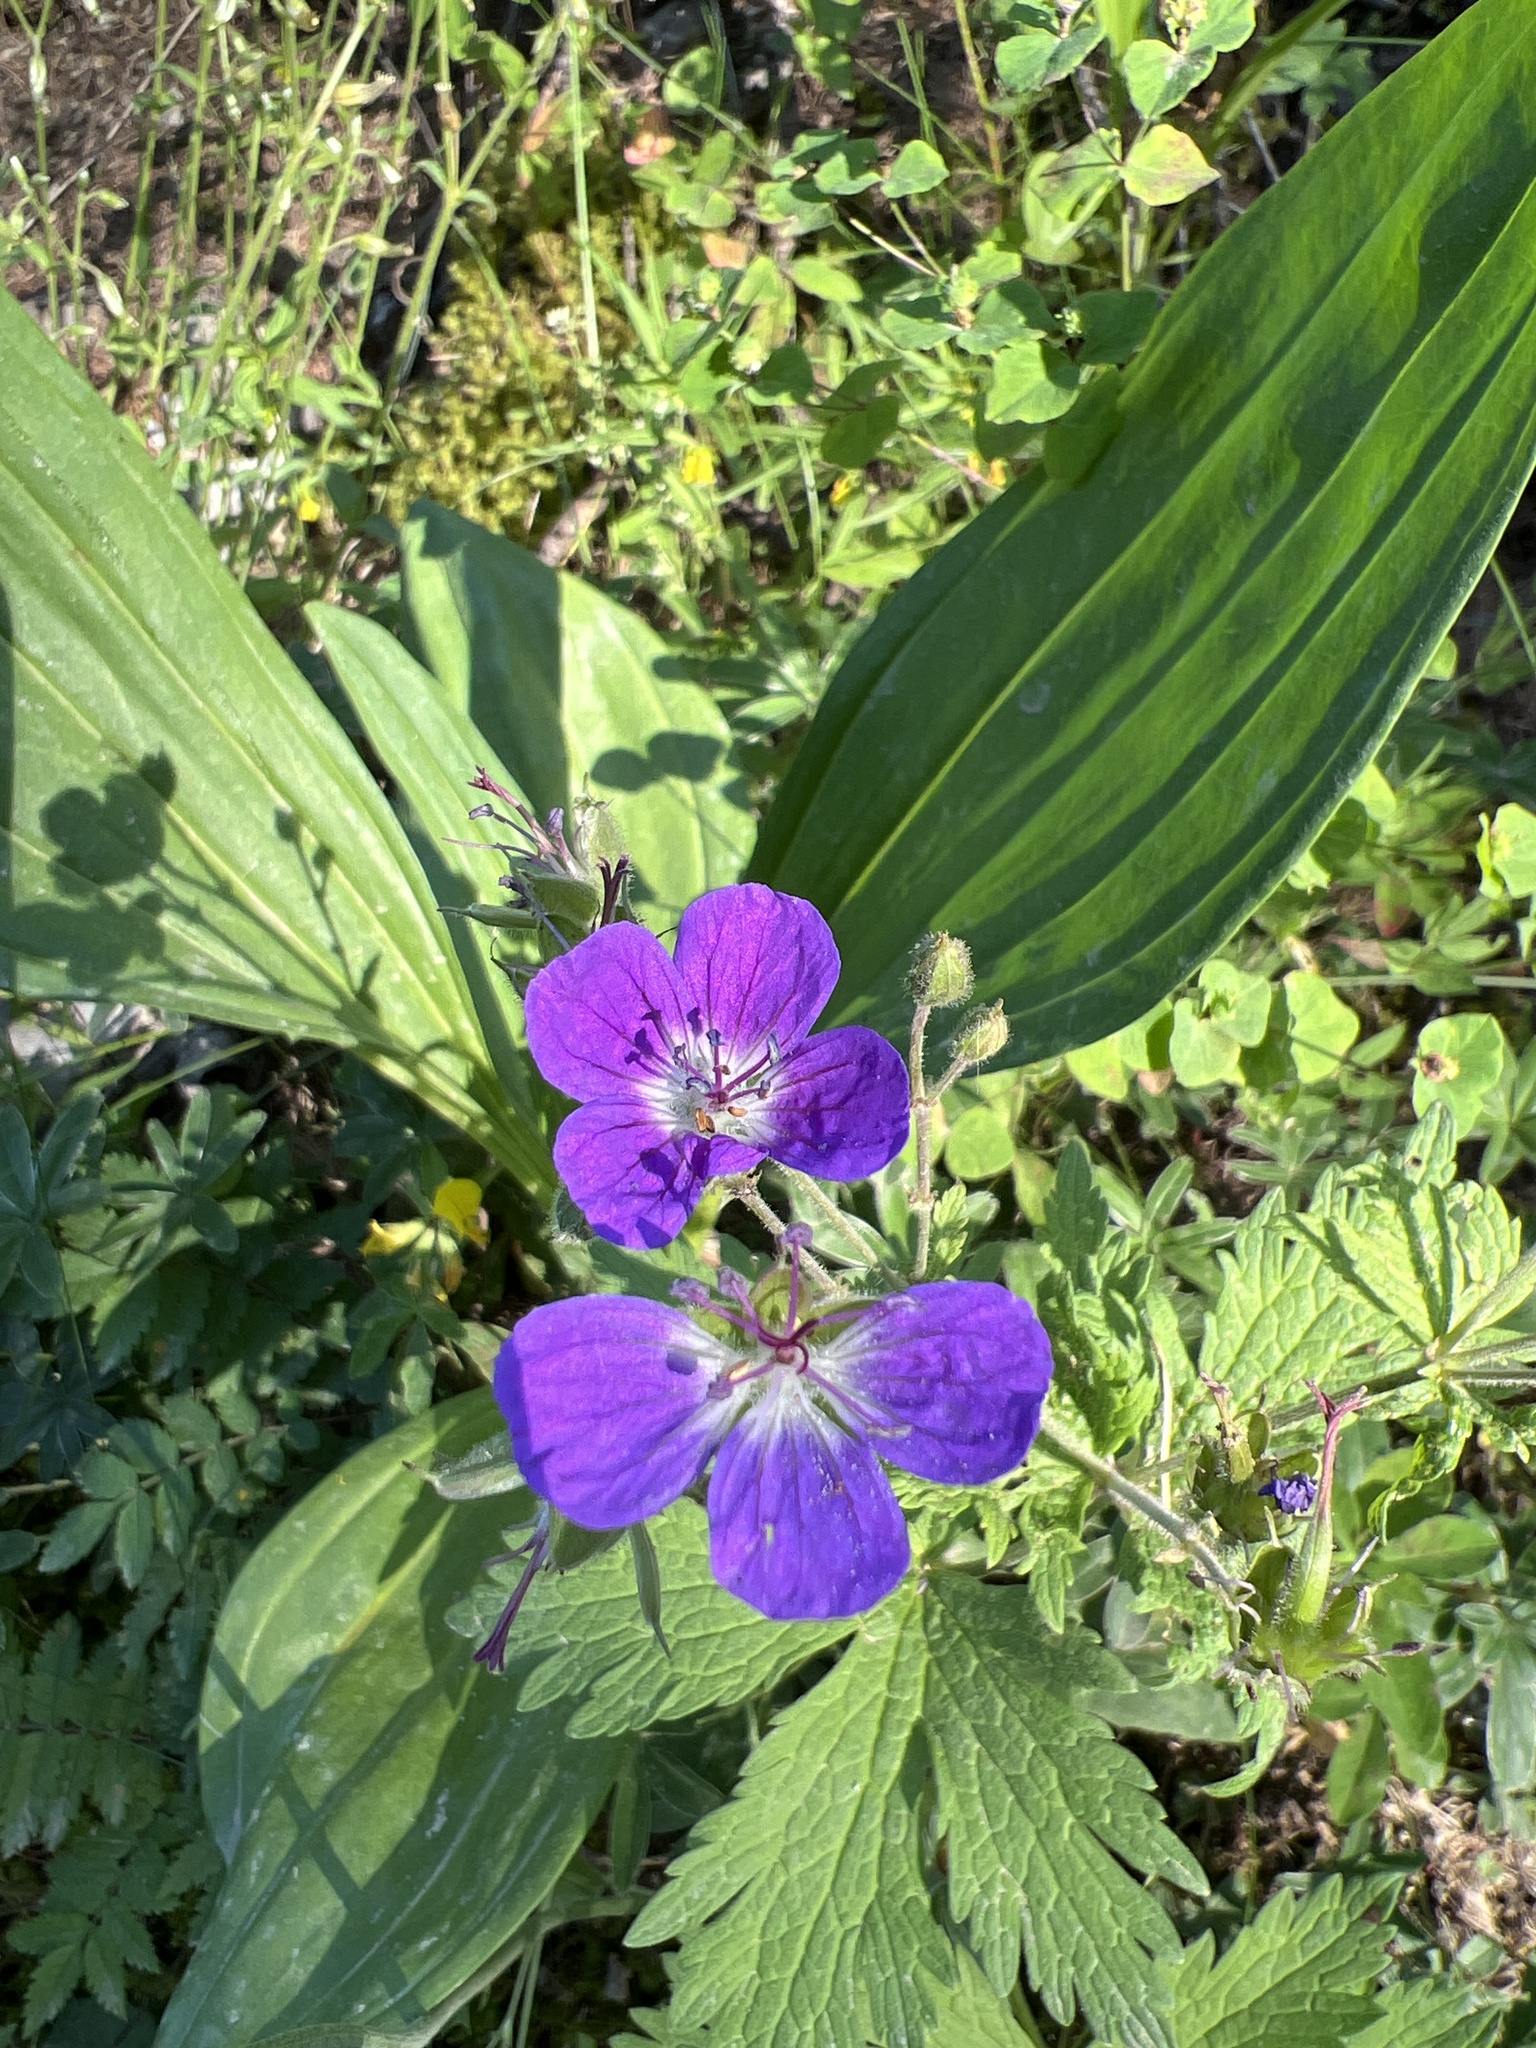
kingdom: Plantae
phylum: Tracheophyta
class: Magnoliopsida
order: Geraniales
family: Geraniaceae
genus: Geranium
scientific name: Geranium sylvaticum
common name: Wood crane's-bill
